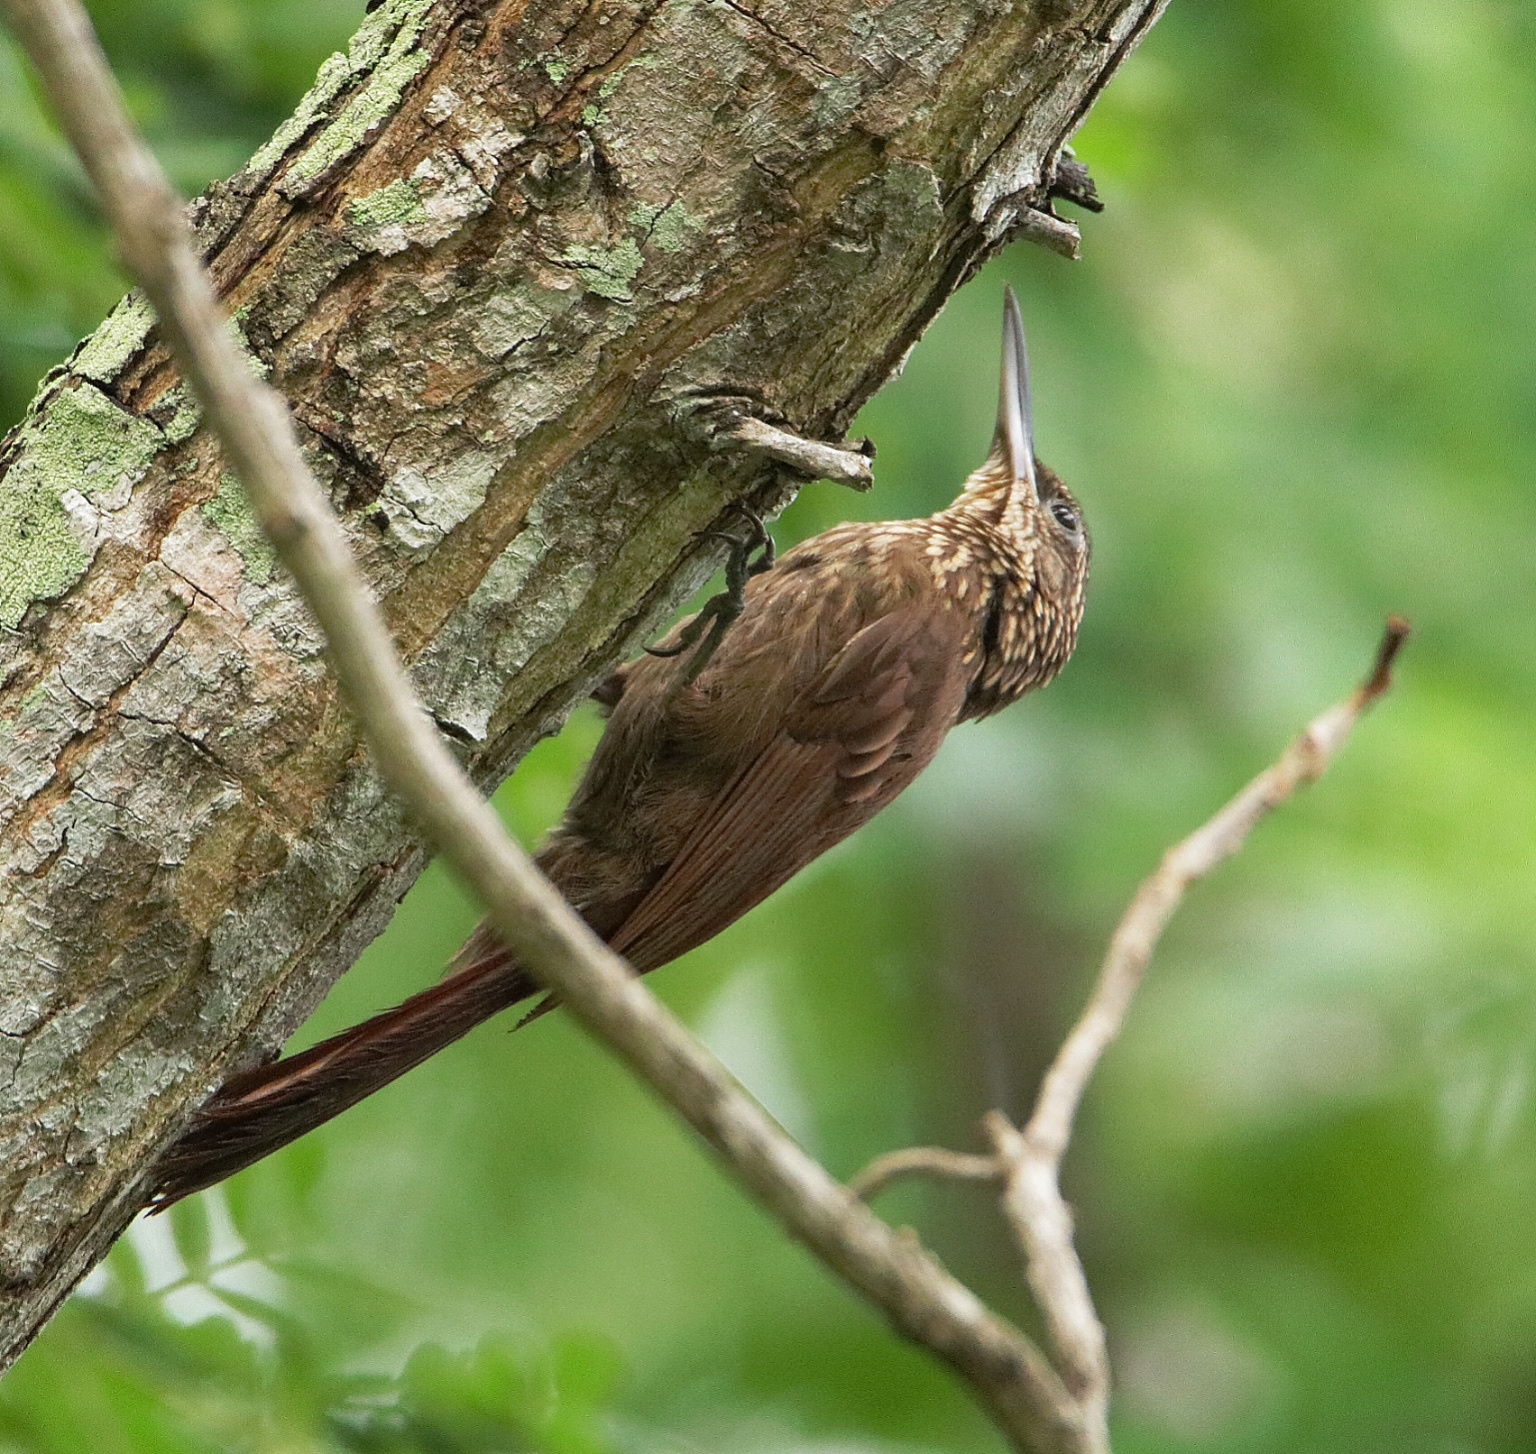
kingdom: Animalia
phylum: Chordata
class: Aves
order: Passeriformes
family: Furnariidae
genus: Xiphorhynchus
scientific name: Xiphorhynchus susurrans
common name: Cocoa woodcreeper
